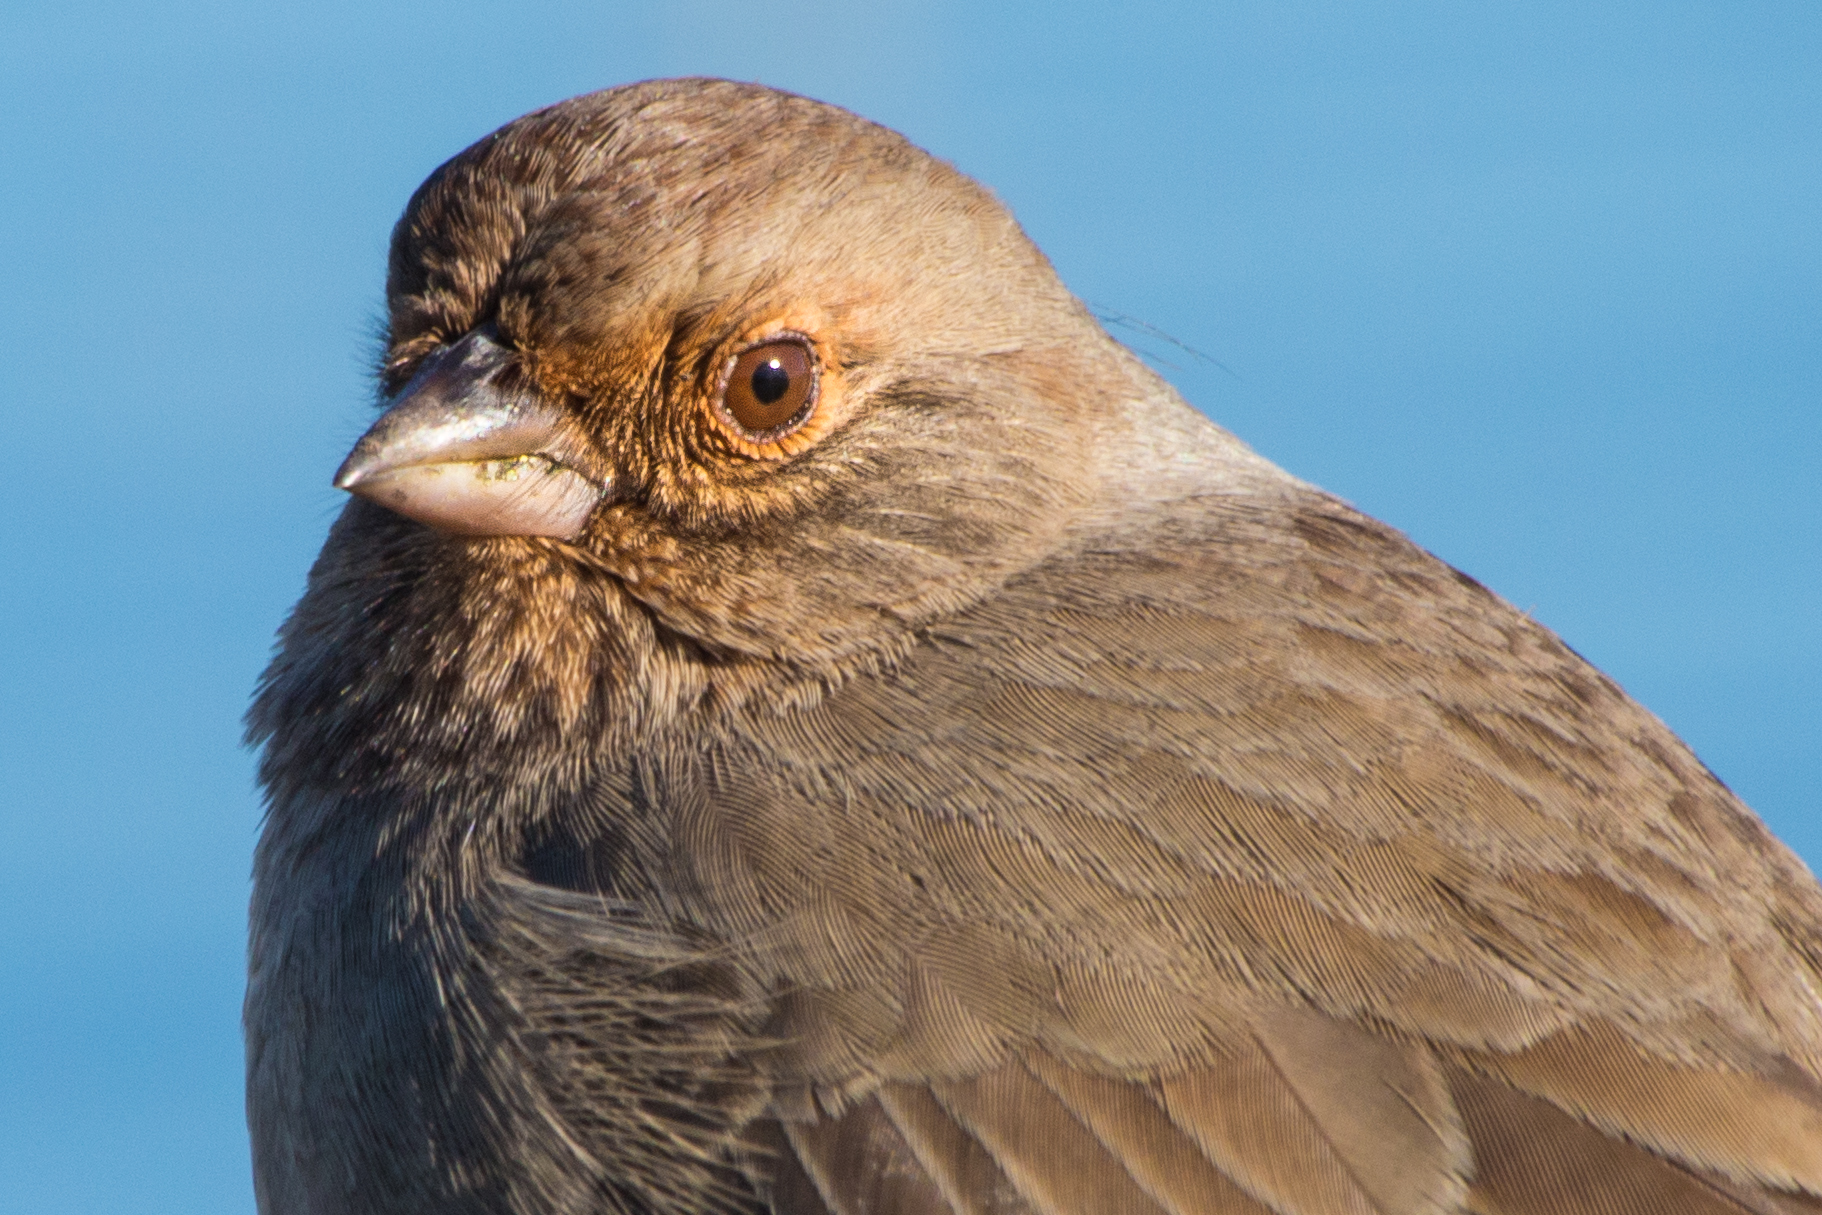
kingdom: Animalia
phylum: Chordata
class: Aves
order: Passeriformes
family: Passerellidae
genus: Melozone
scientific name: Melozone crissalis
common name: California towhee
